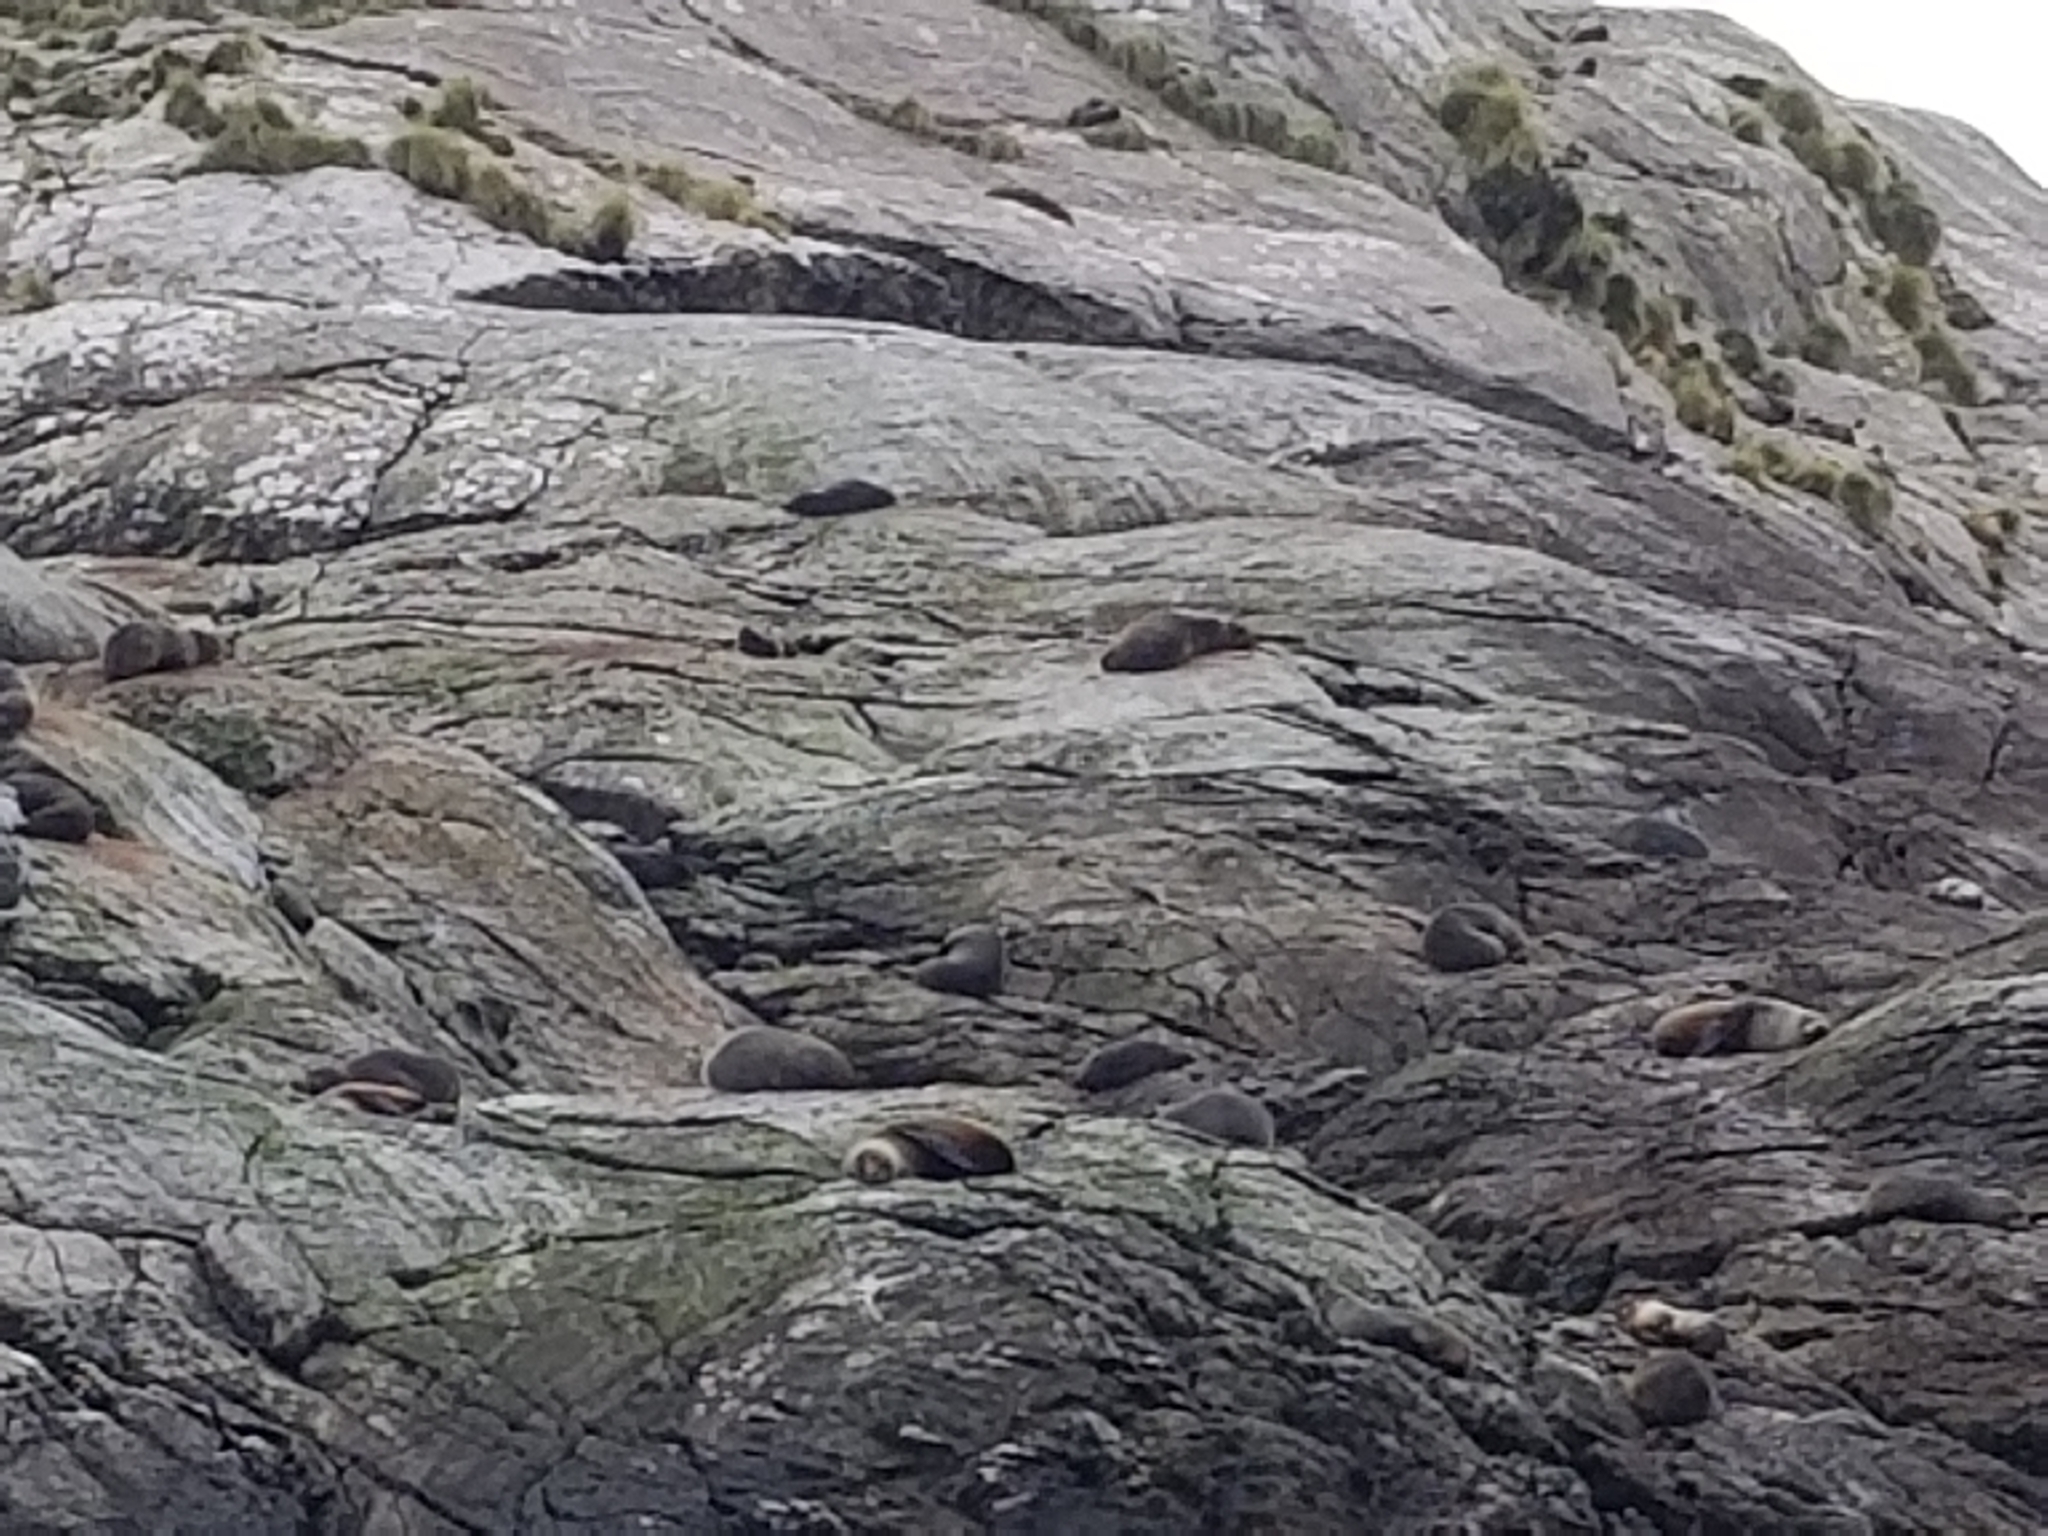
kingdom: Animalia
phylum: Chordata
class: Mammalia
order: Carnivora
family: Otariidae
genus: Arctocephalus
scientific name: Arctocephalus forsteri
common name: New zealand fur seal
